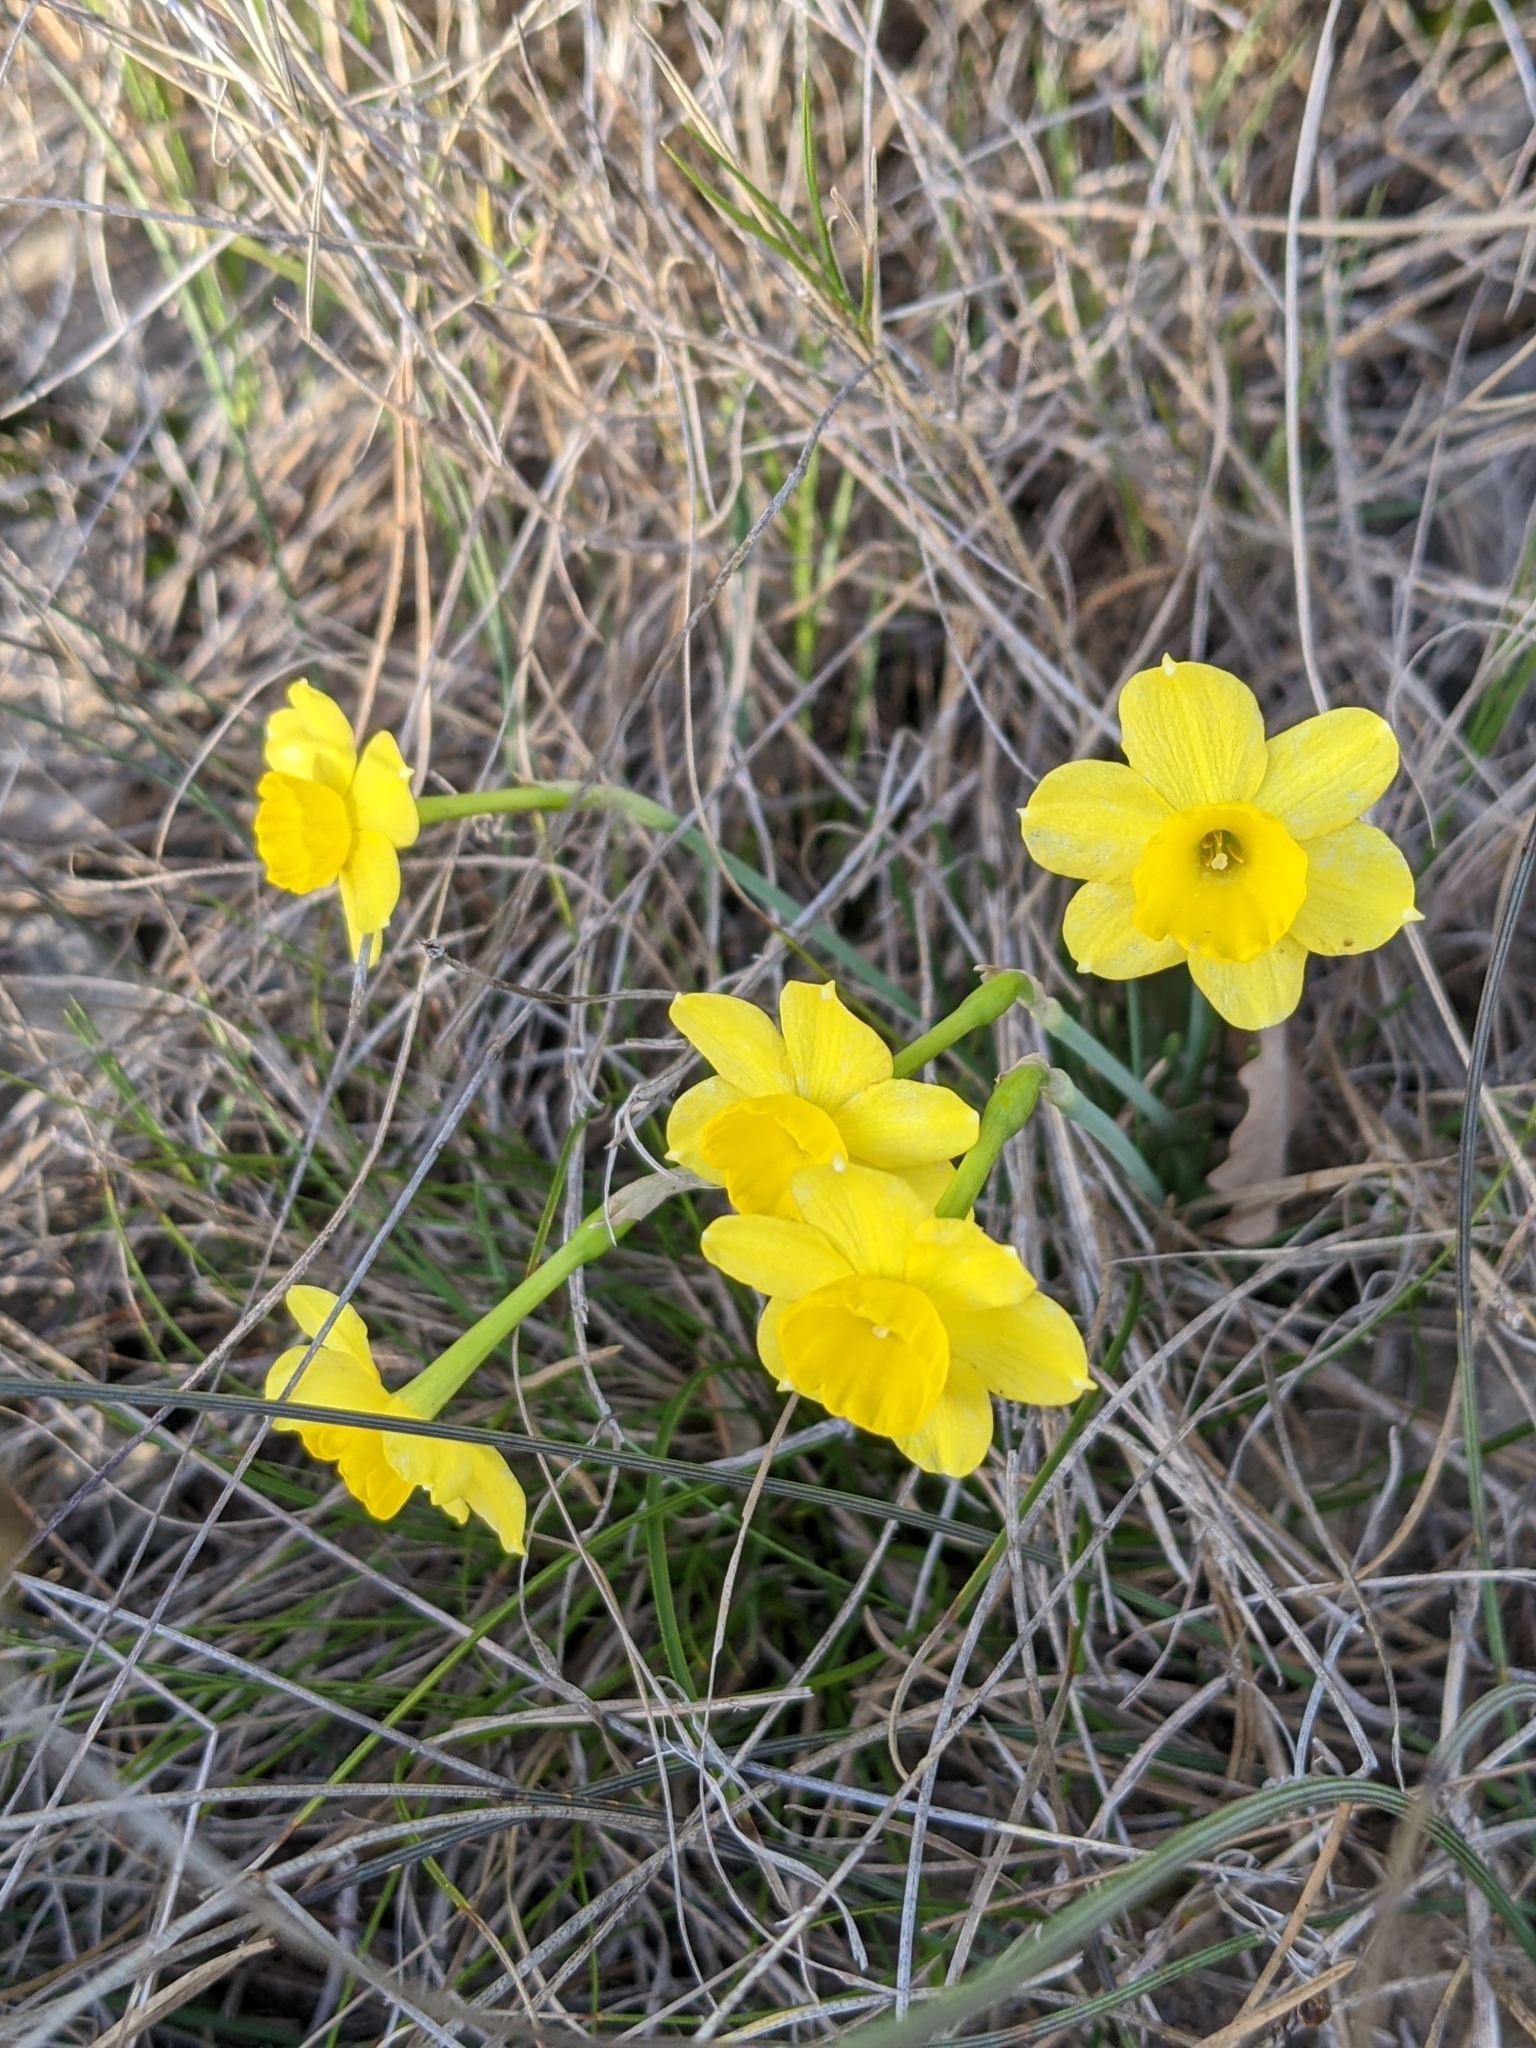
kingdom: Plantae
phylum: Tracheophyta
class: Liliopsida
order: Asparagales
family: Amaryllidaceae
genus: Narcissus
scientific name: Narcissus assoanus
